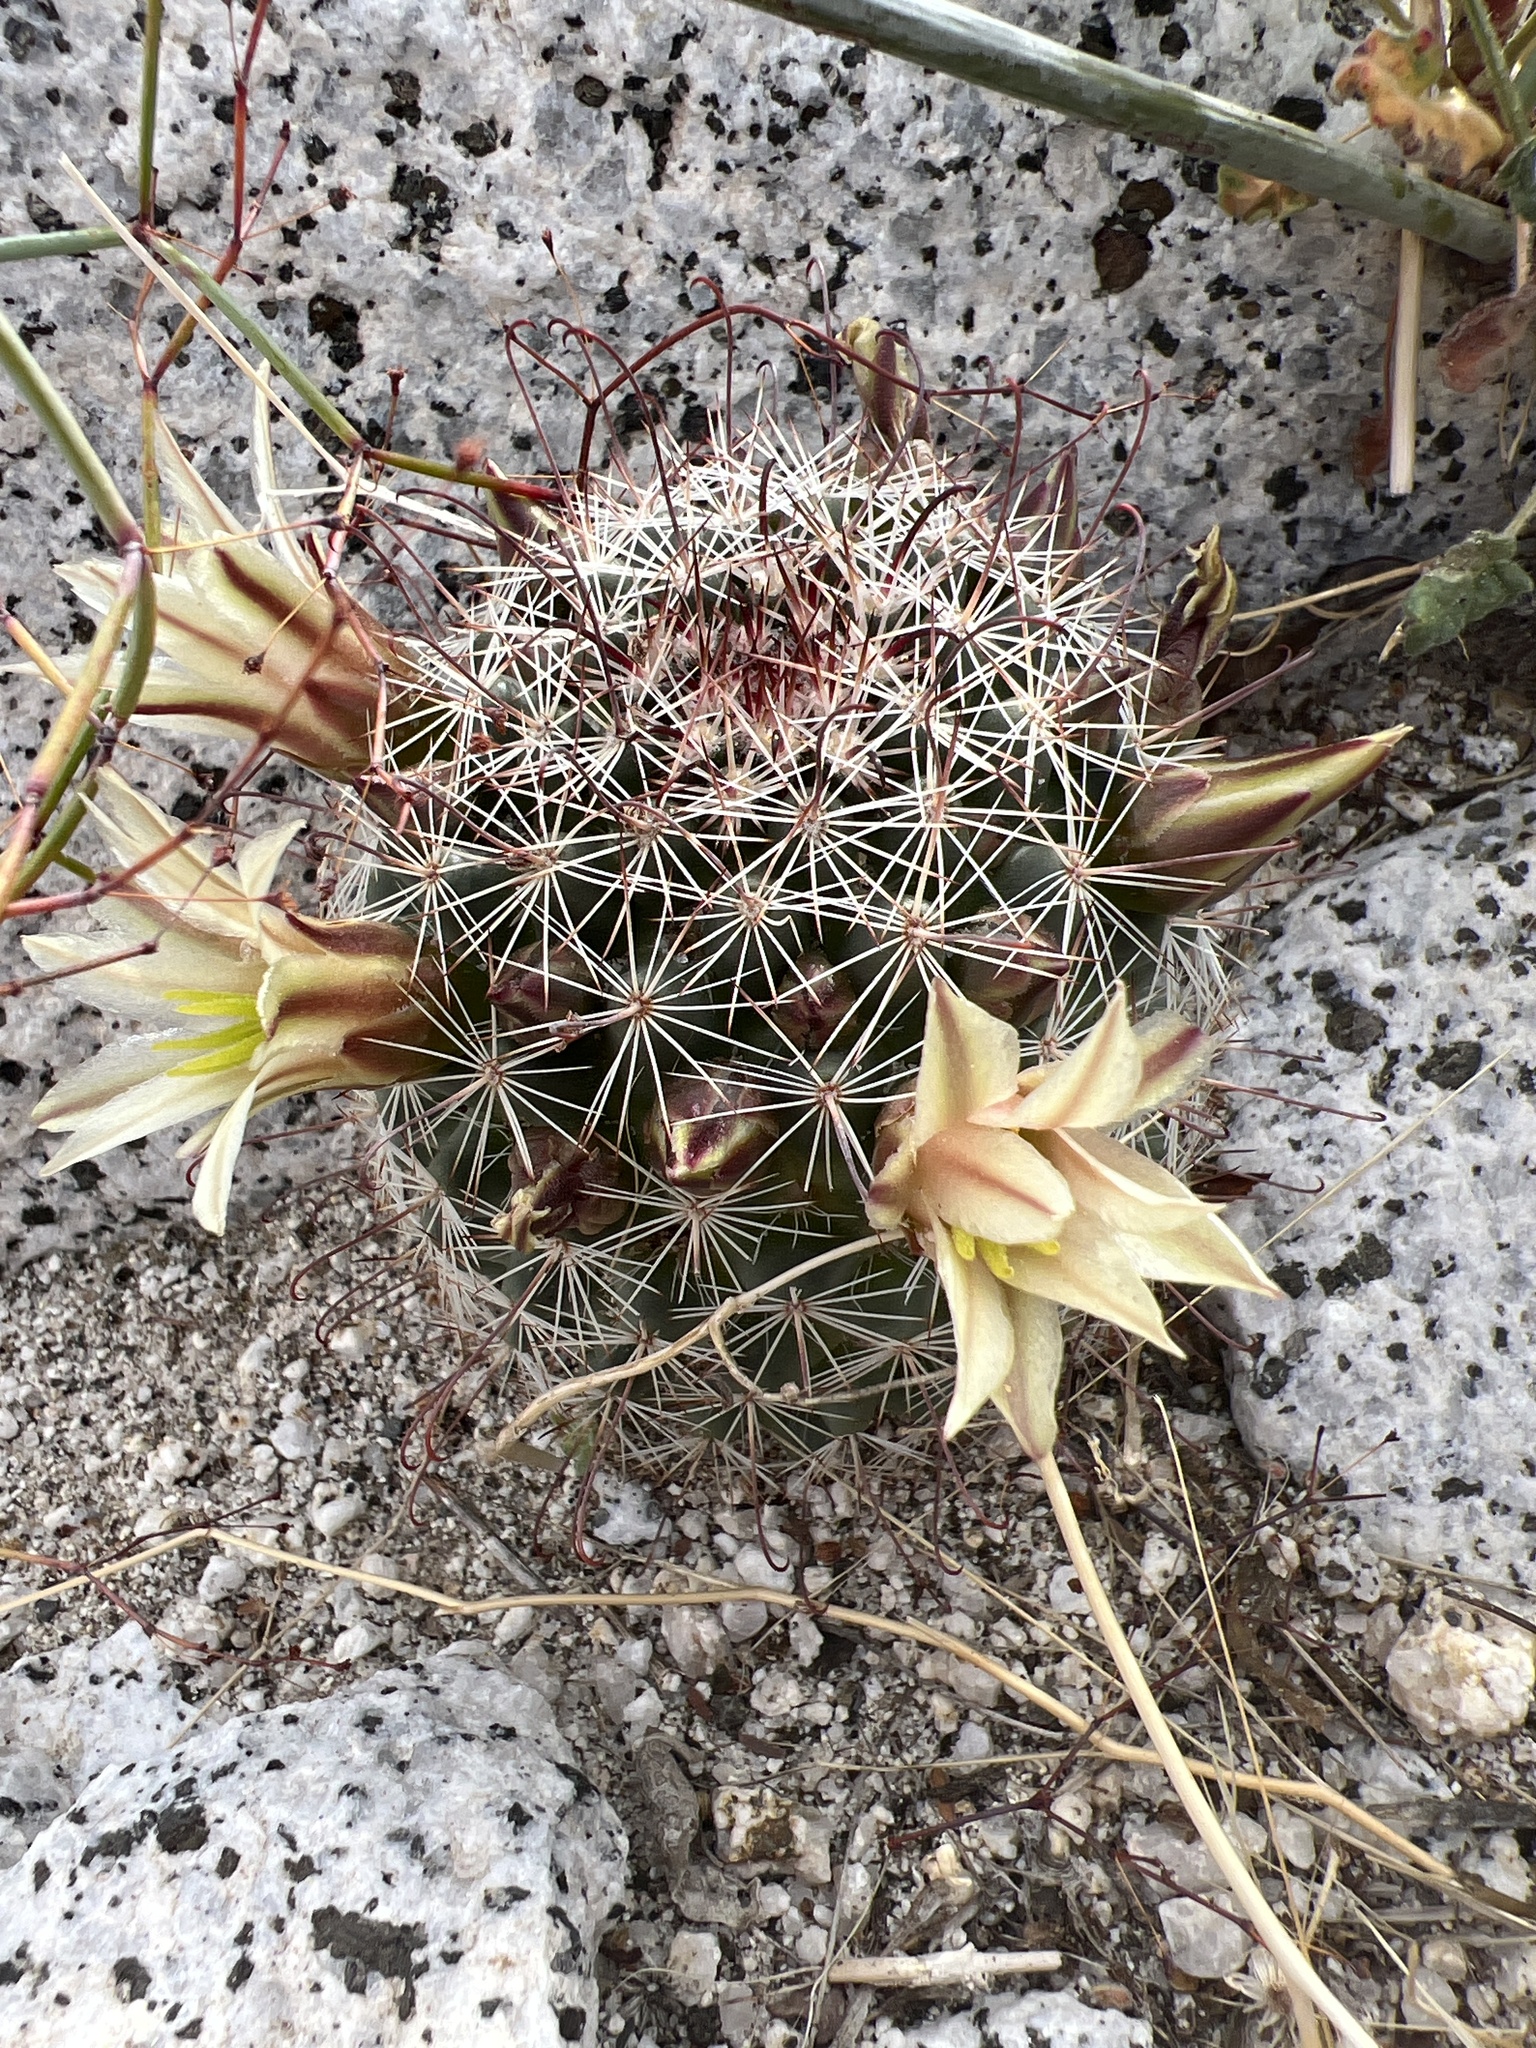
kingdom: Plantae
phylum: Tracheophyta
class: Magnoliopsida
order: Caryophyllales
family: Cactaceae
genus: Cochemiea
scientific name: Cochemiea dioica
